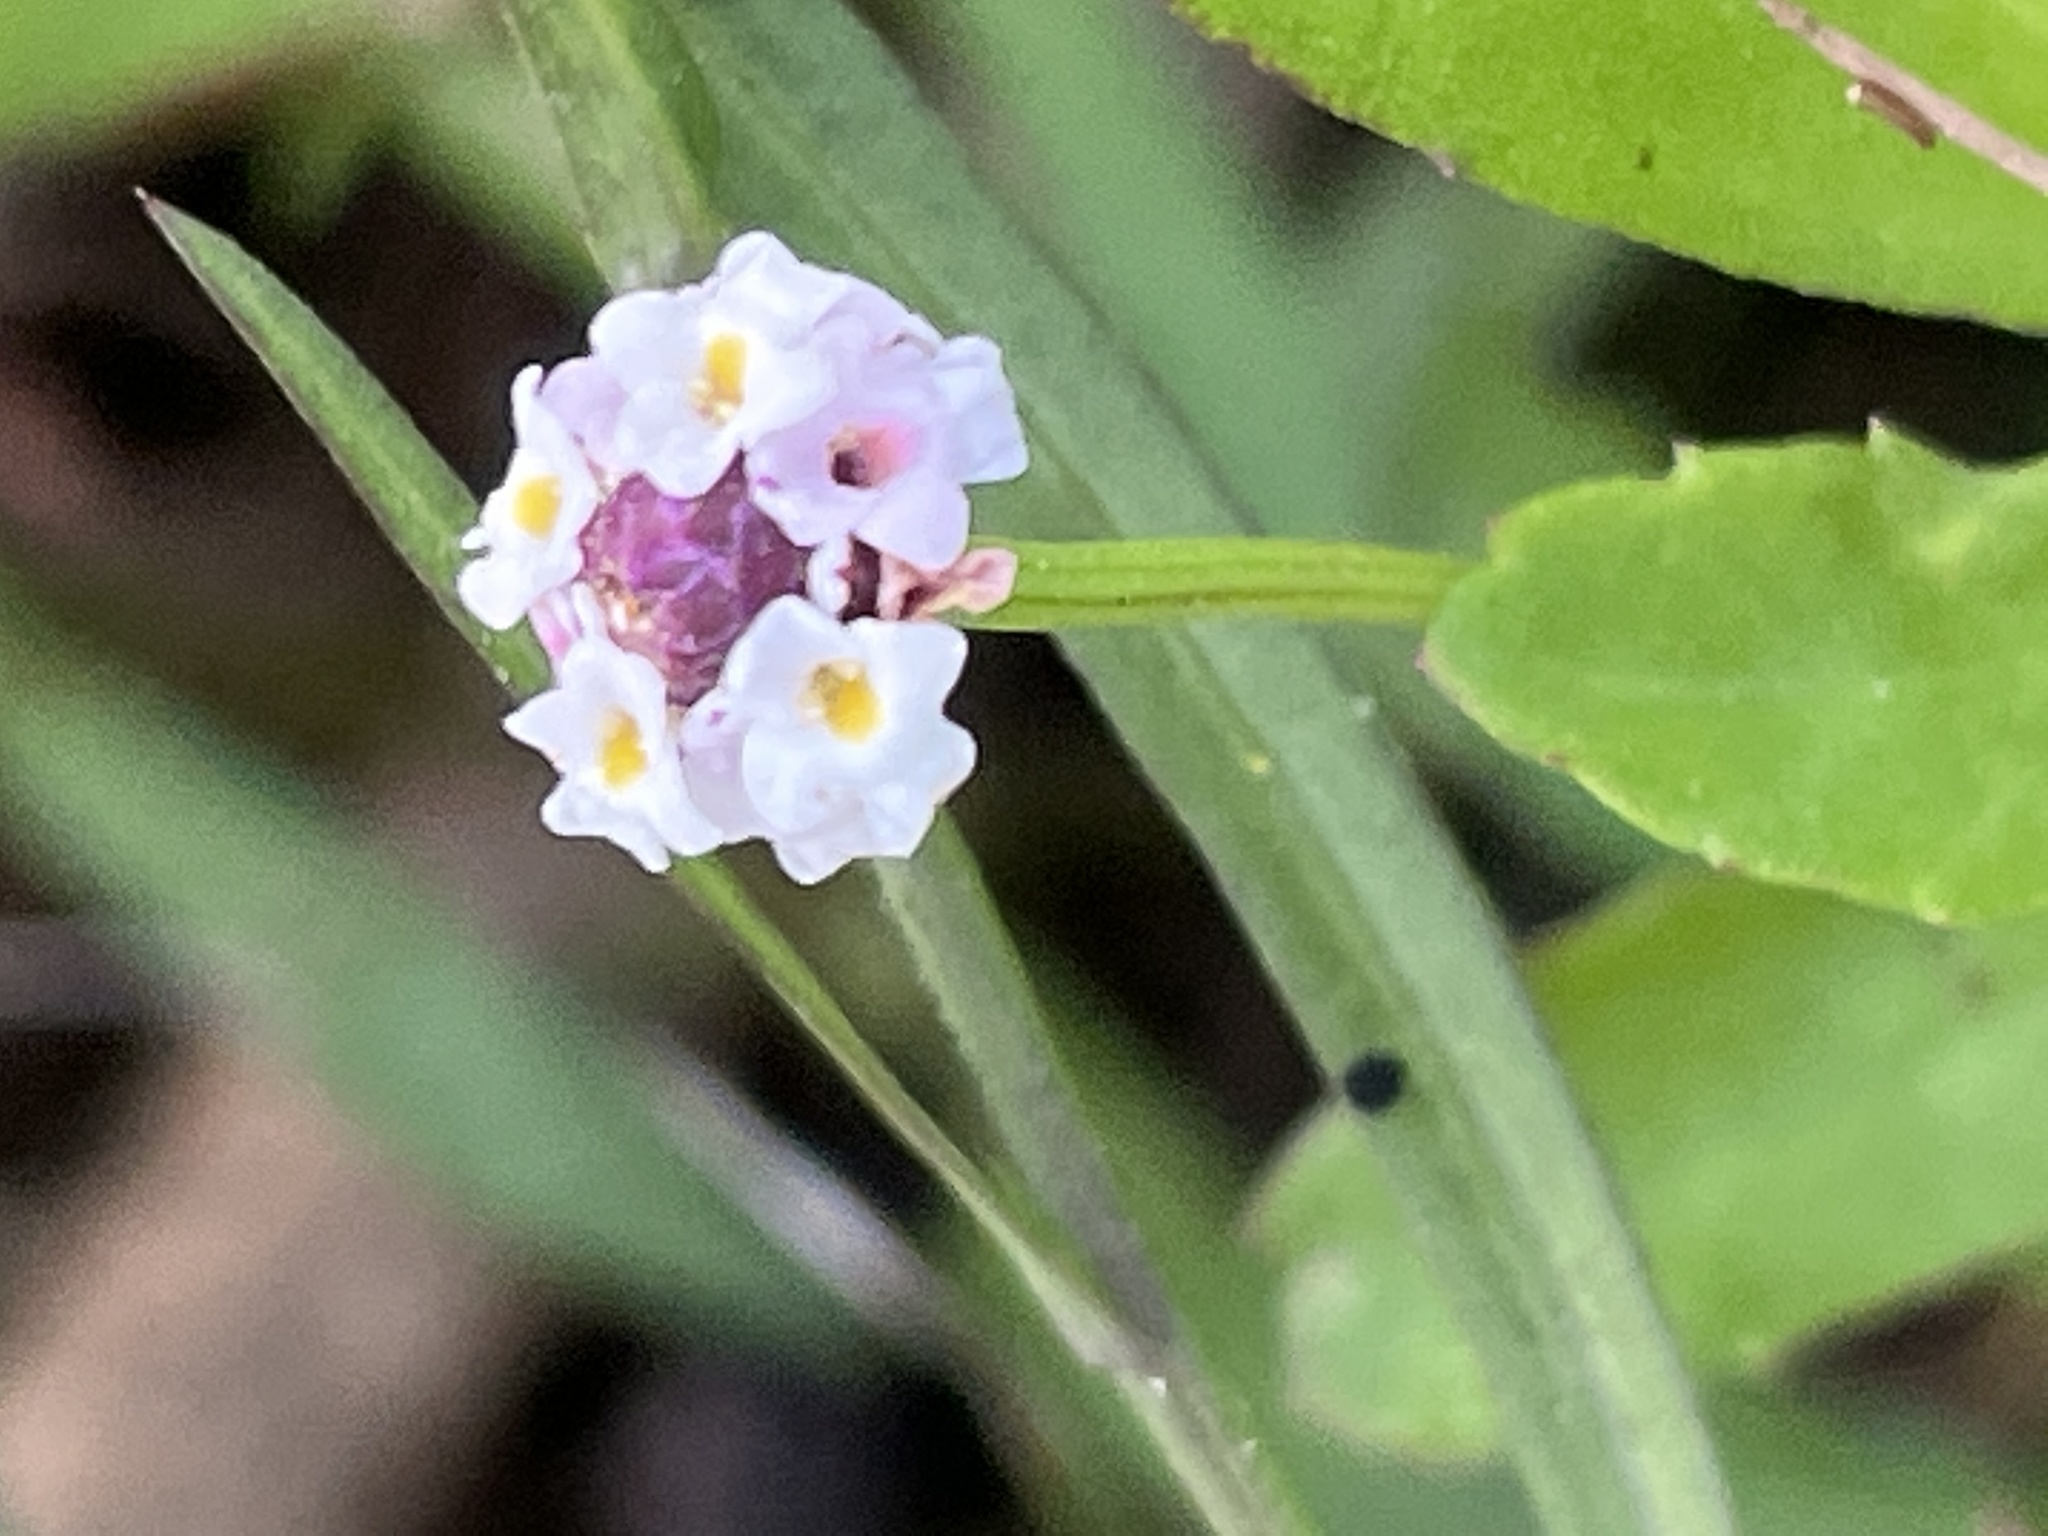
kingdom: Plantae
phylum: Tracheophyta
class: Magnoliopsida
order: Lamiales
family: Verbenaceae
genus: Phyla
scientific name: Phyla nodiflora
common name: Frogfruit
